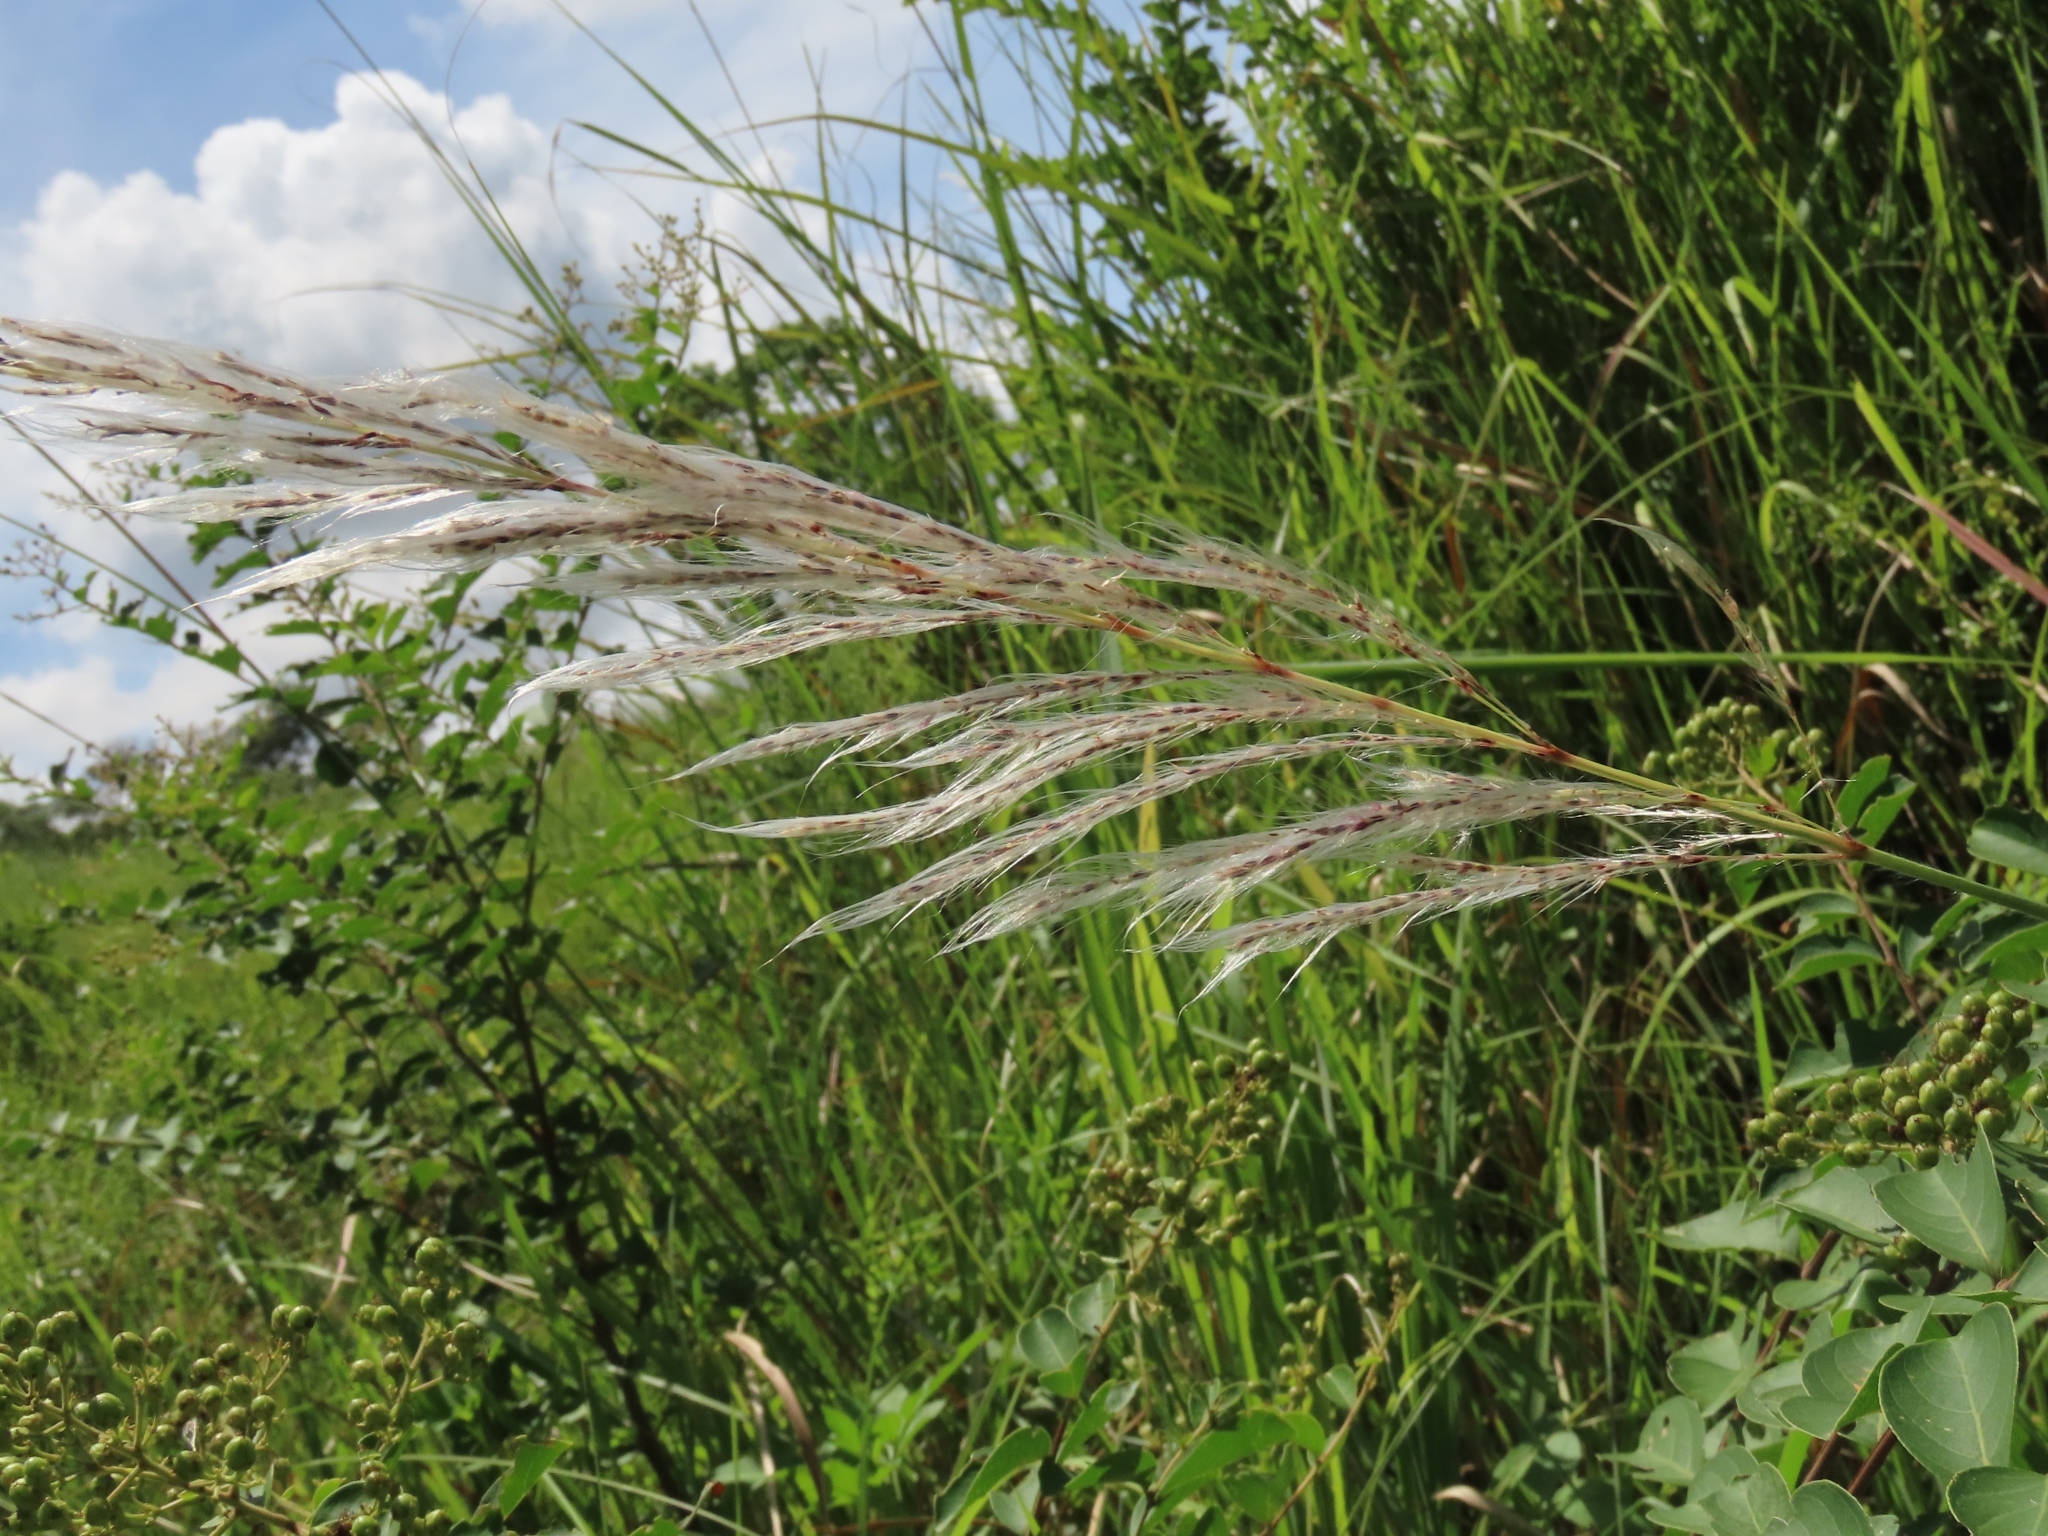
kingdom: Plantae
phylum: Tracheophyta
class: Liliopsida
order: Poales
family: Poaceae
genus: Saccharum
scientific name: Saccharum spontaneum
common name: Wild sugarcane
